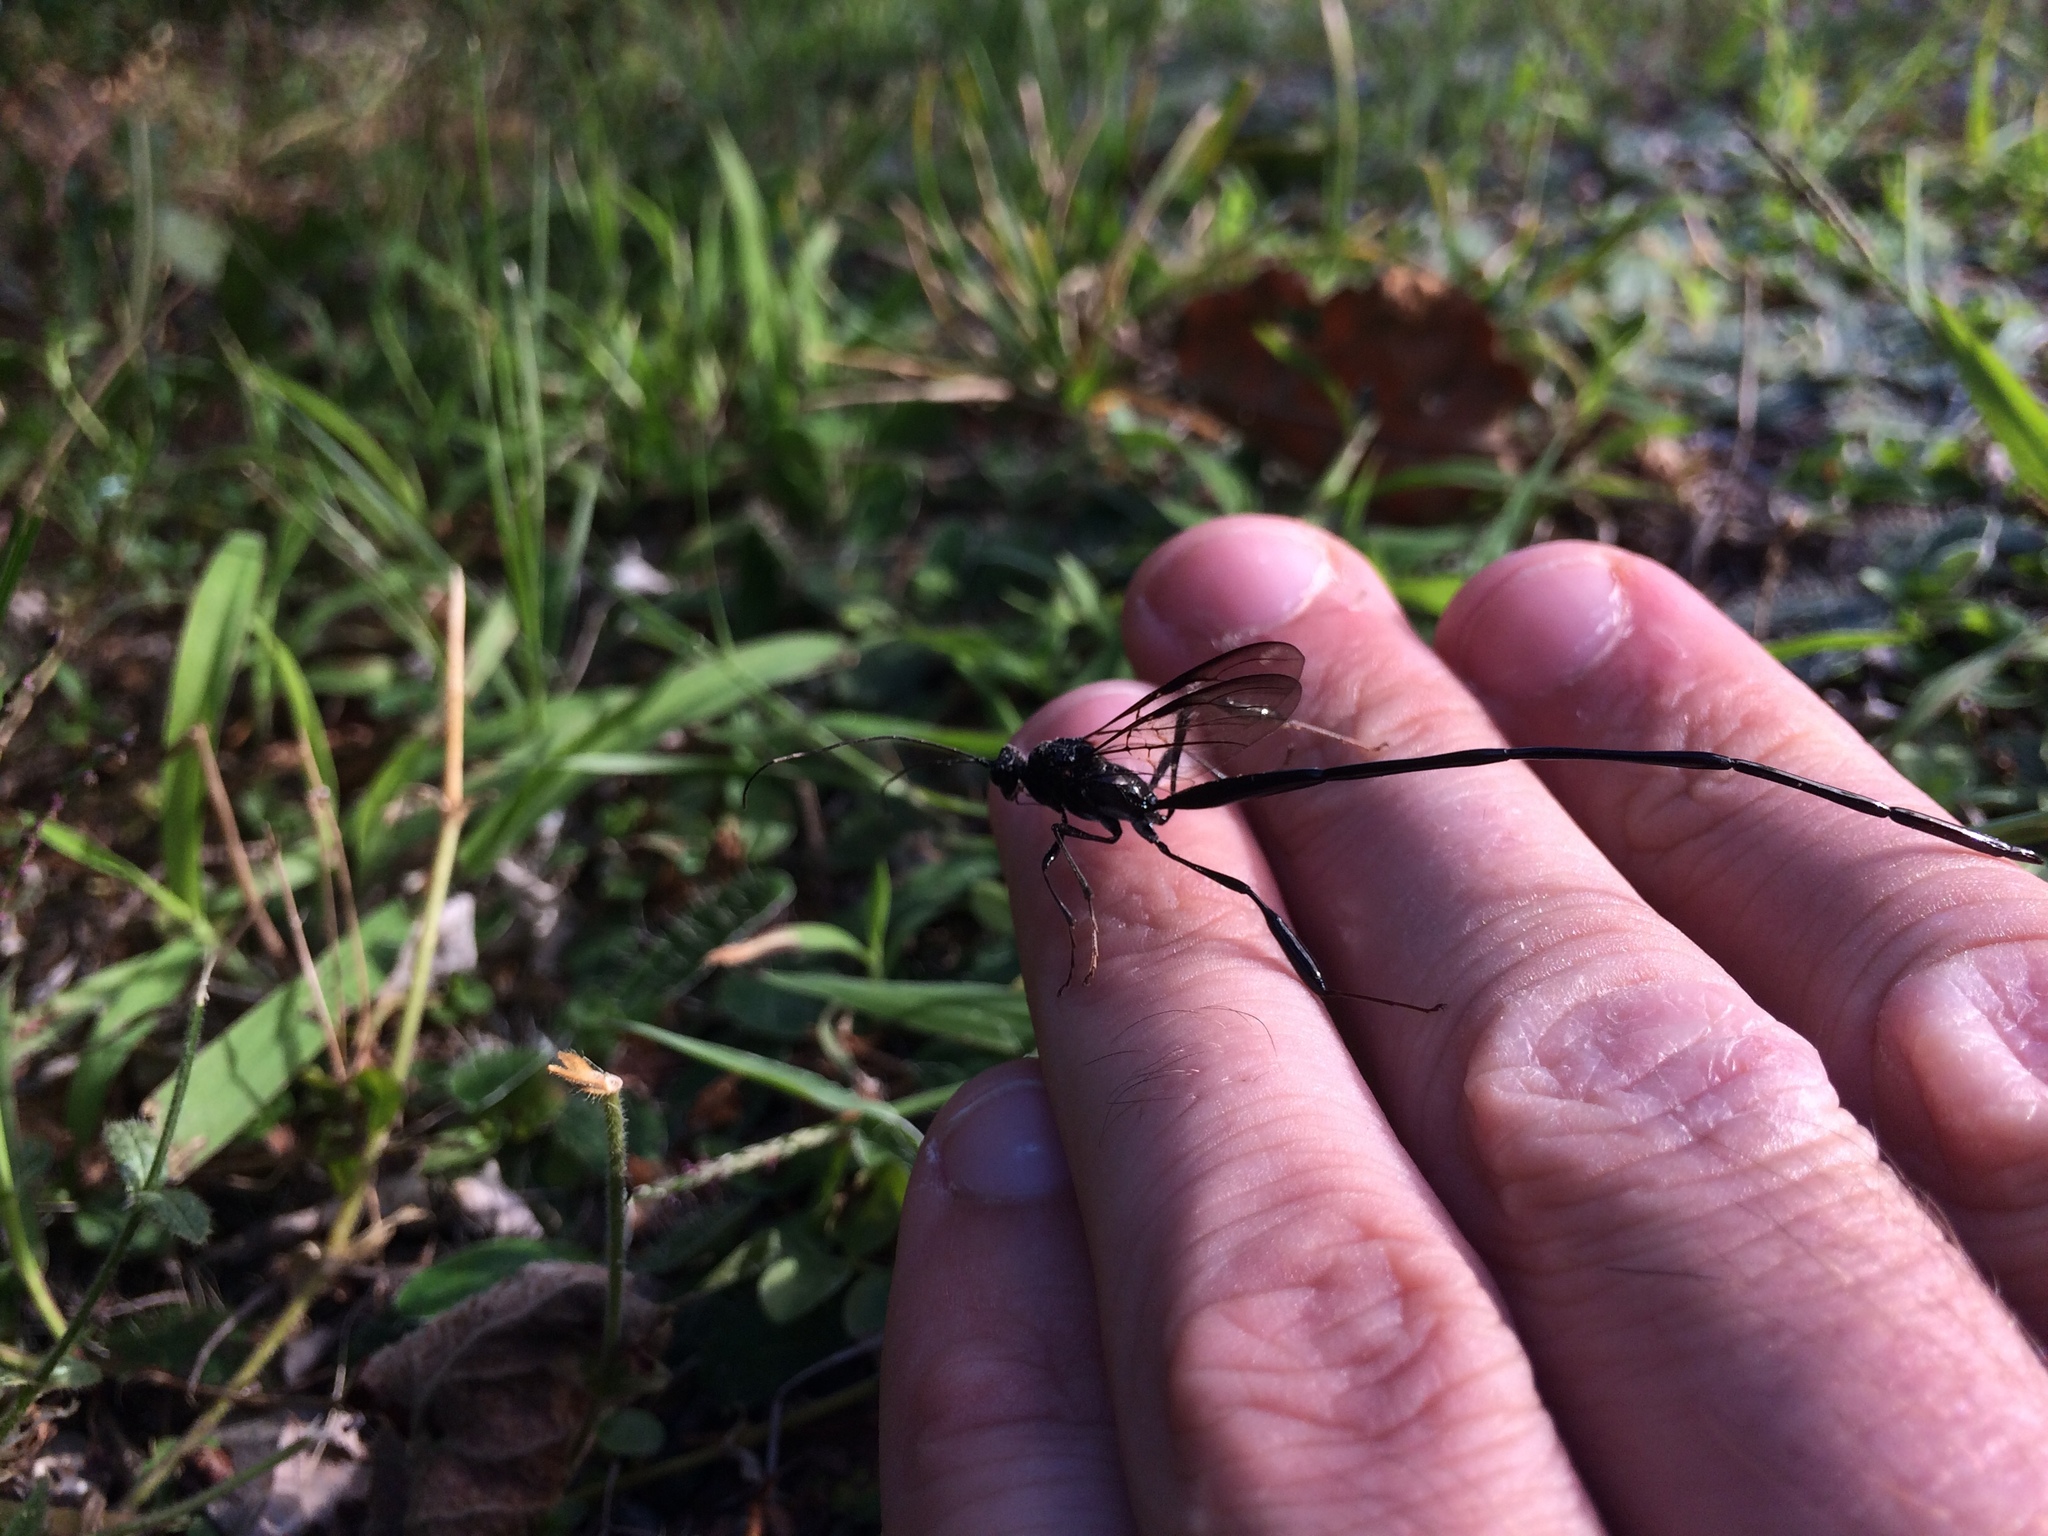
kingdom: Animalia
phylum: Arthropoda
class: Insecta
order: Hymenoptera
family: Pelecinidae
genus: Pelecinus
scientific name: Pelecinus polyturator
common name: American pelecinid wasp
